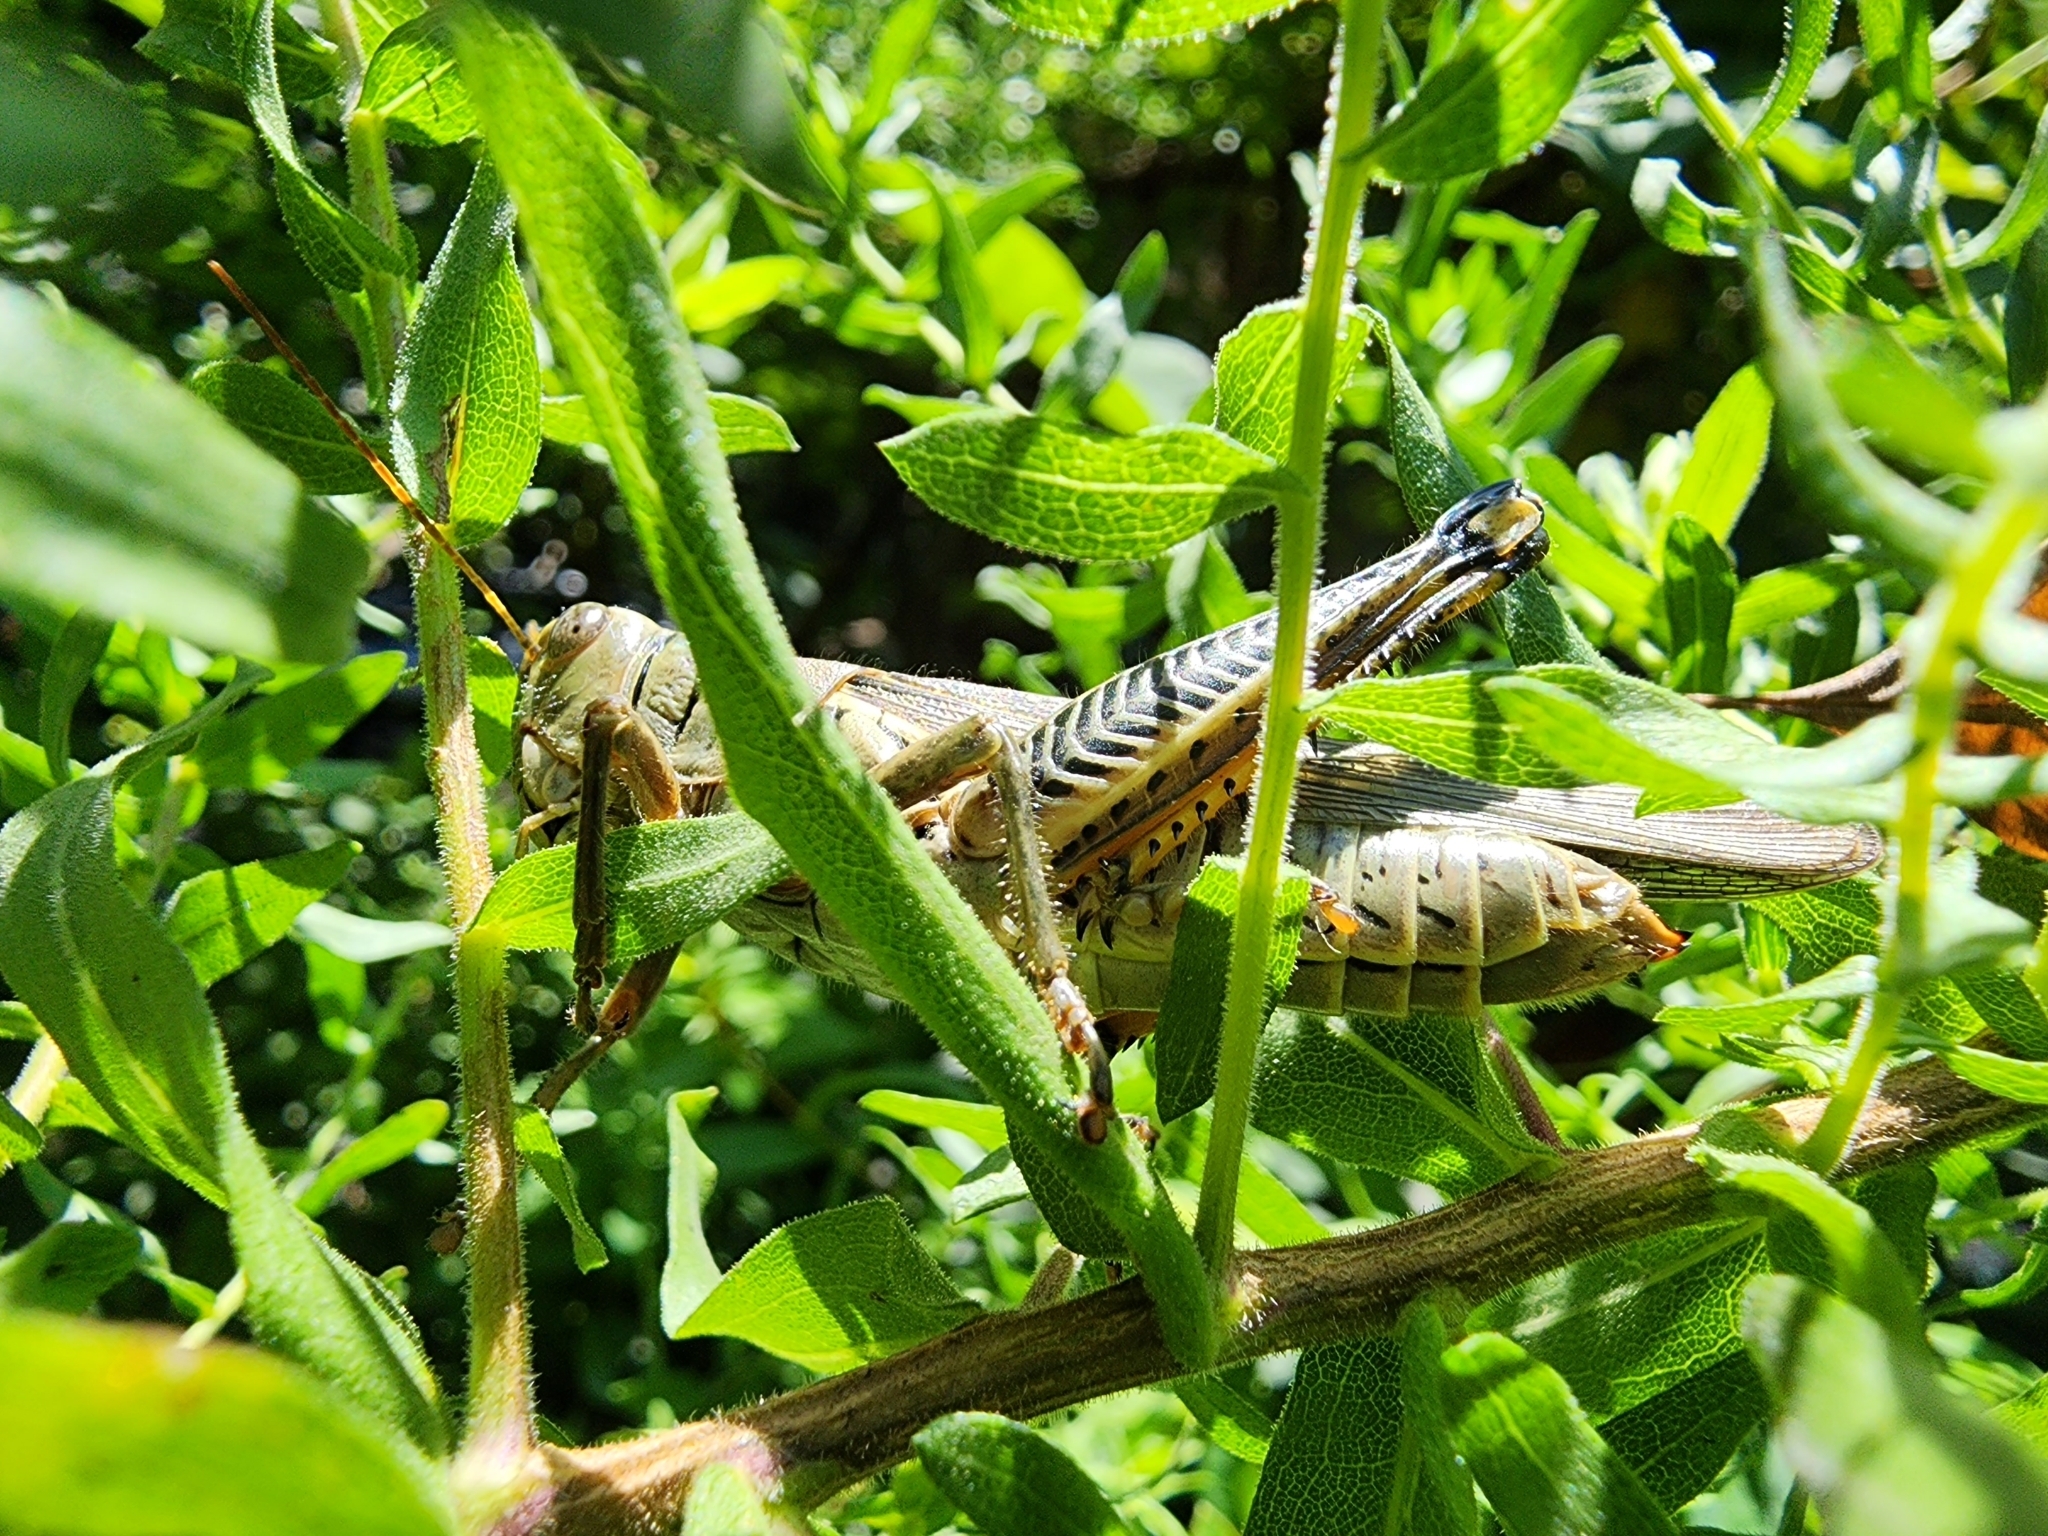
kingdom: Animalia
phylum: Arthropoda
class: Insecta
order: Orthoptera
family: Acrididae
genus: Melanoplus
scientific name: Melanoplus differentialis
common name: Differential grasshopper
